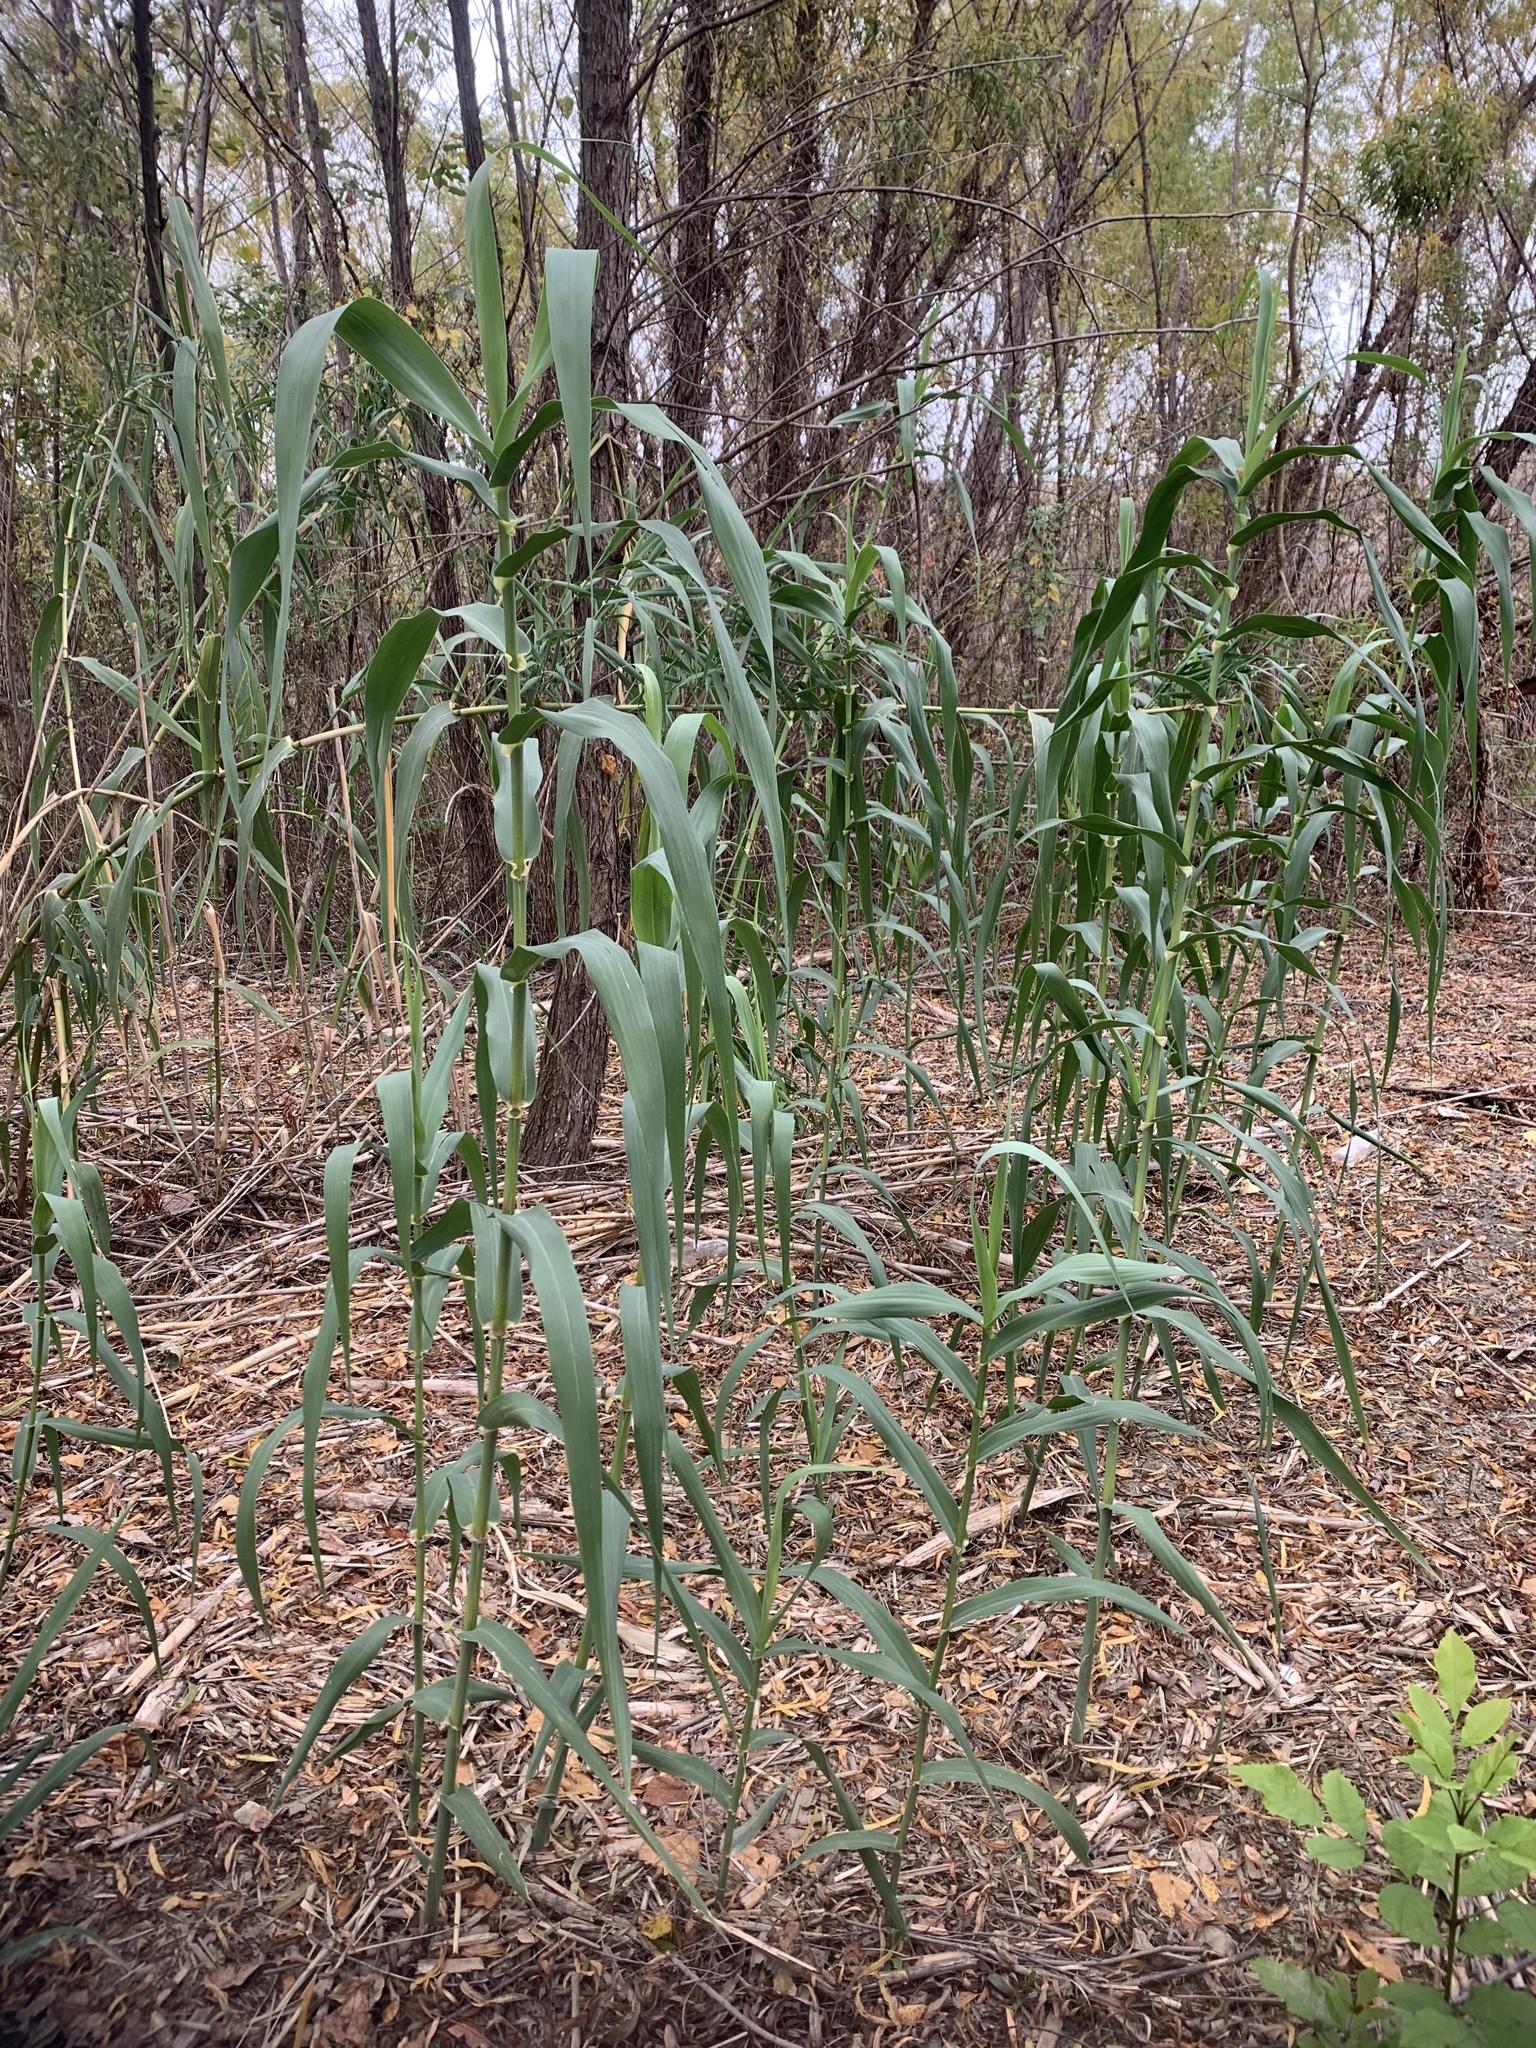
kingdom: Plantae
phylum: Tracheophyta
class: Liliopsida
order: Poales
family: Poaceae
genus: Arundo
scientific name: Arundo donax
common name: Giant reed
